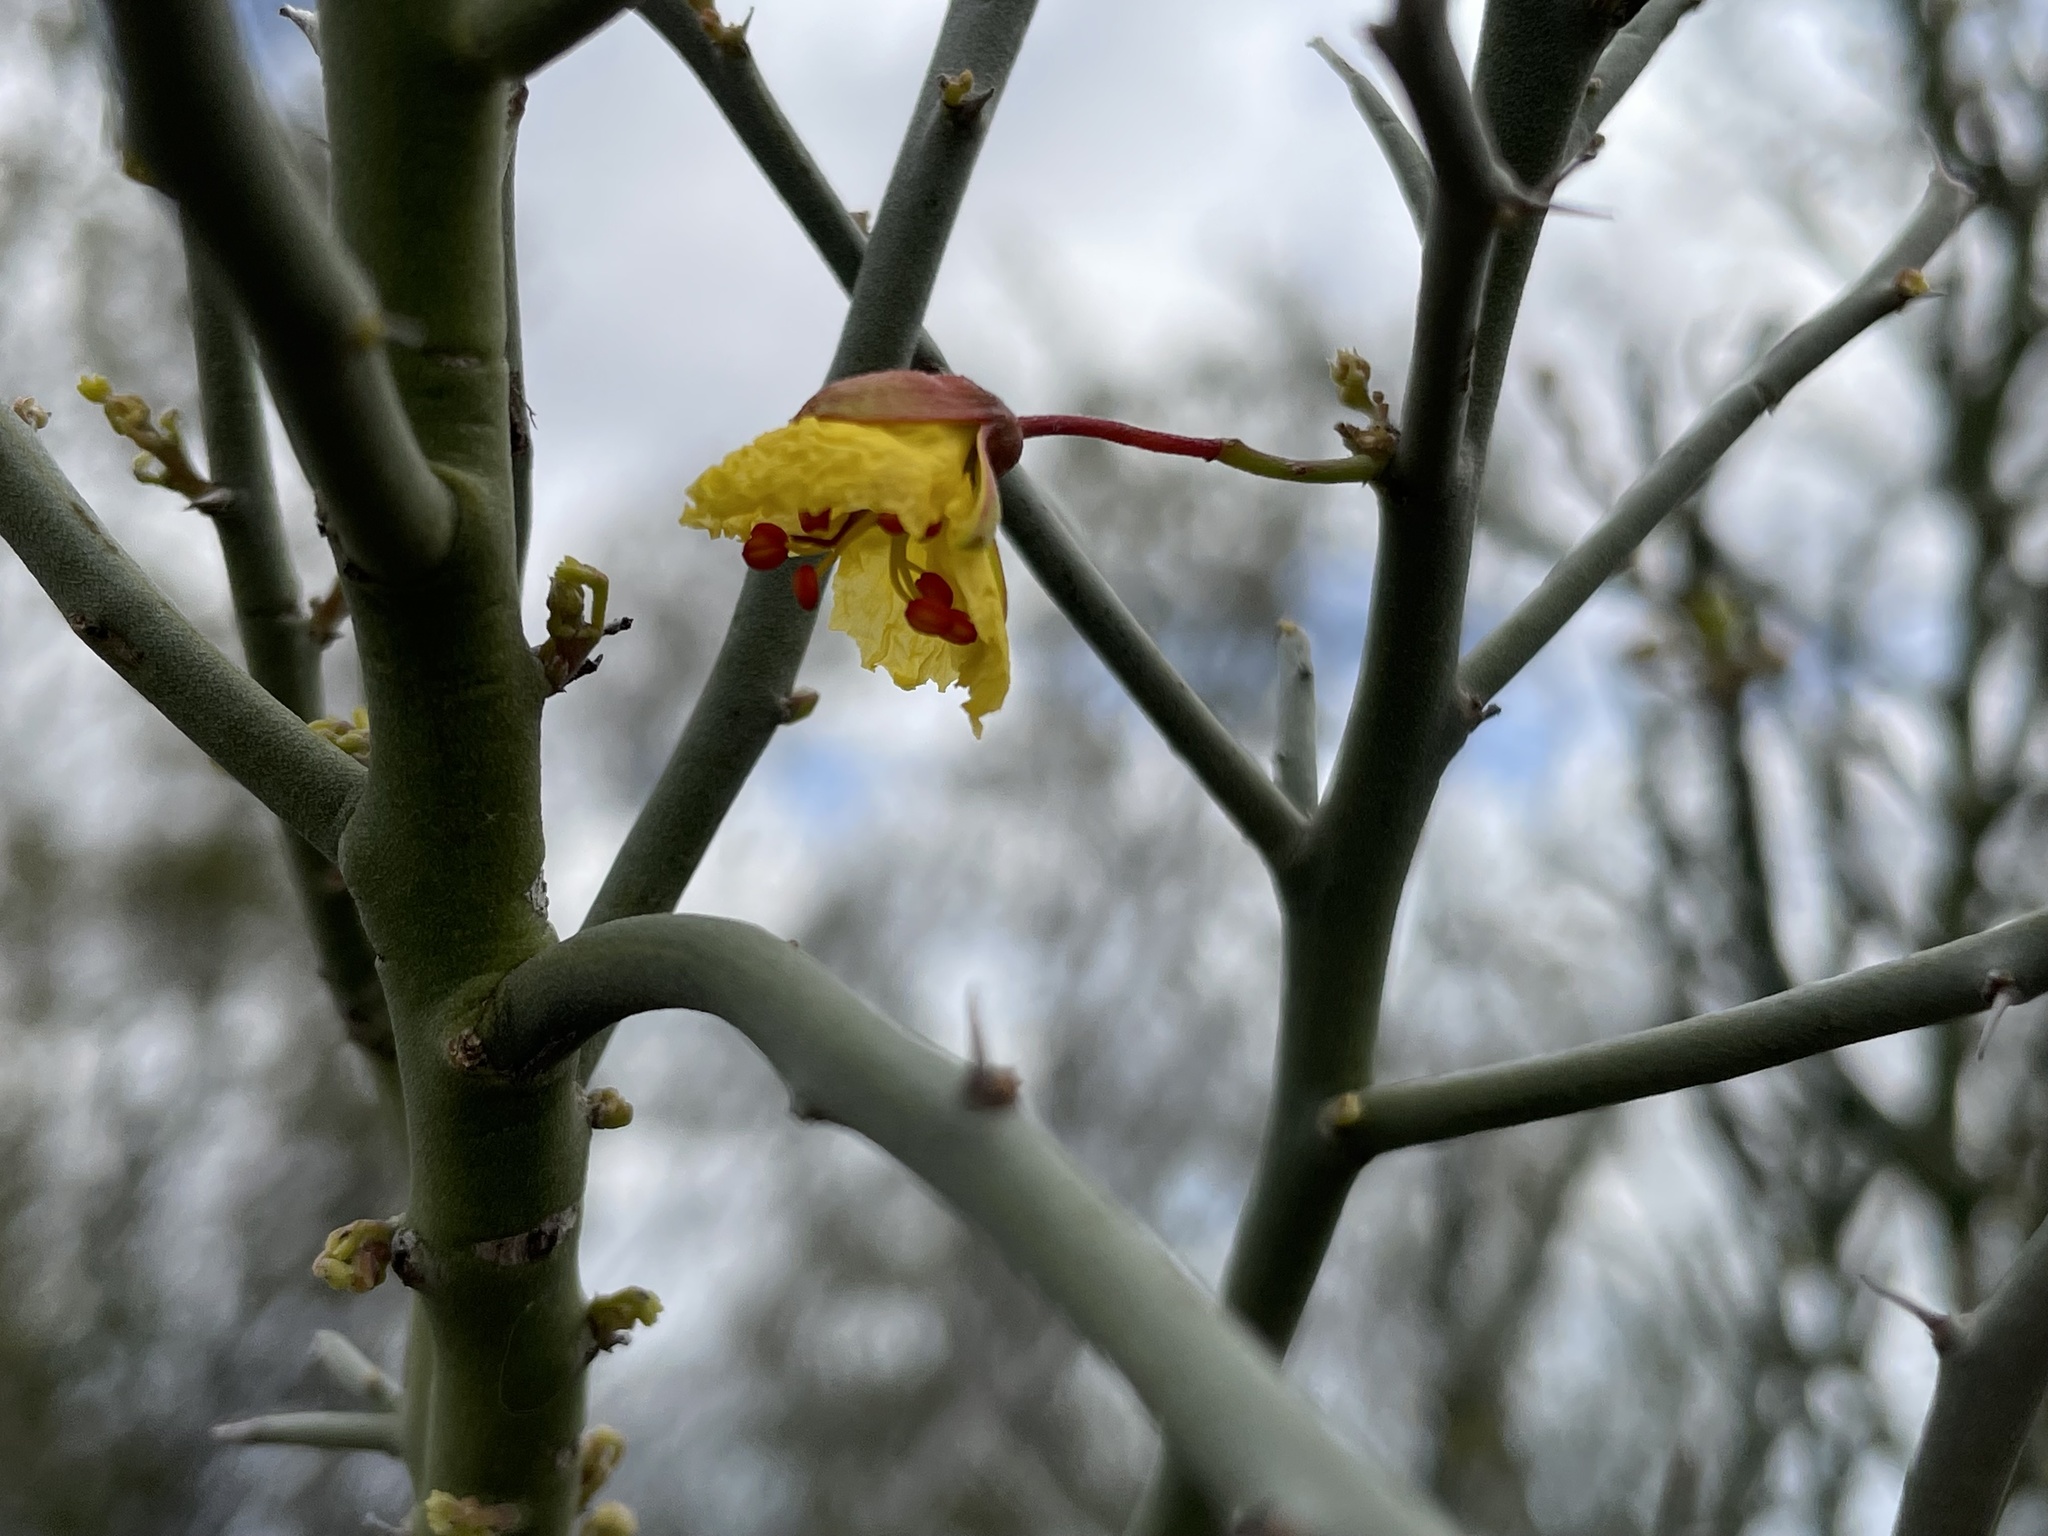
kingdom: Plantae
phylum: Tracheophyta
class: Magnoliopsida
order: Fabales
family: Fabaceae
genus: Parkinsonia
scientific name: Parkinsonia texana
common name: Texas paloverde
